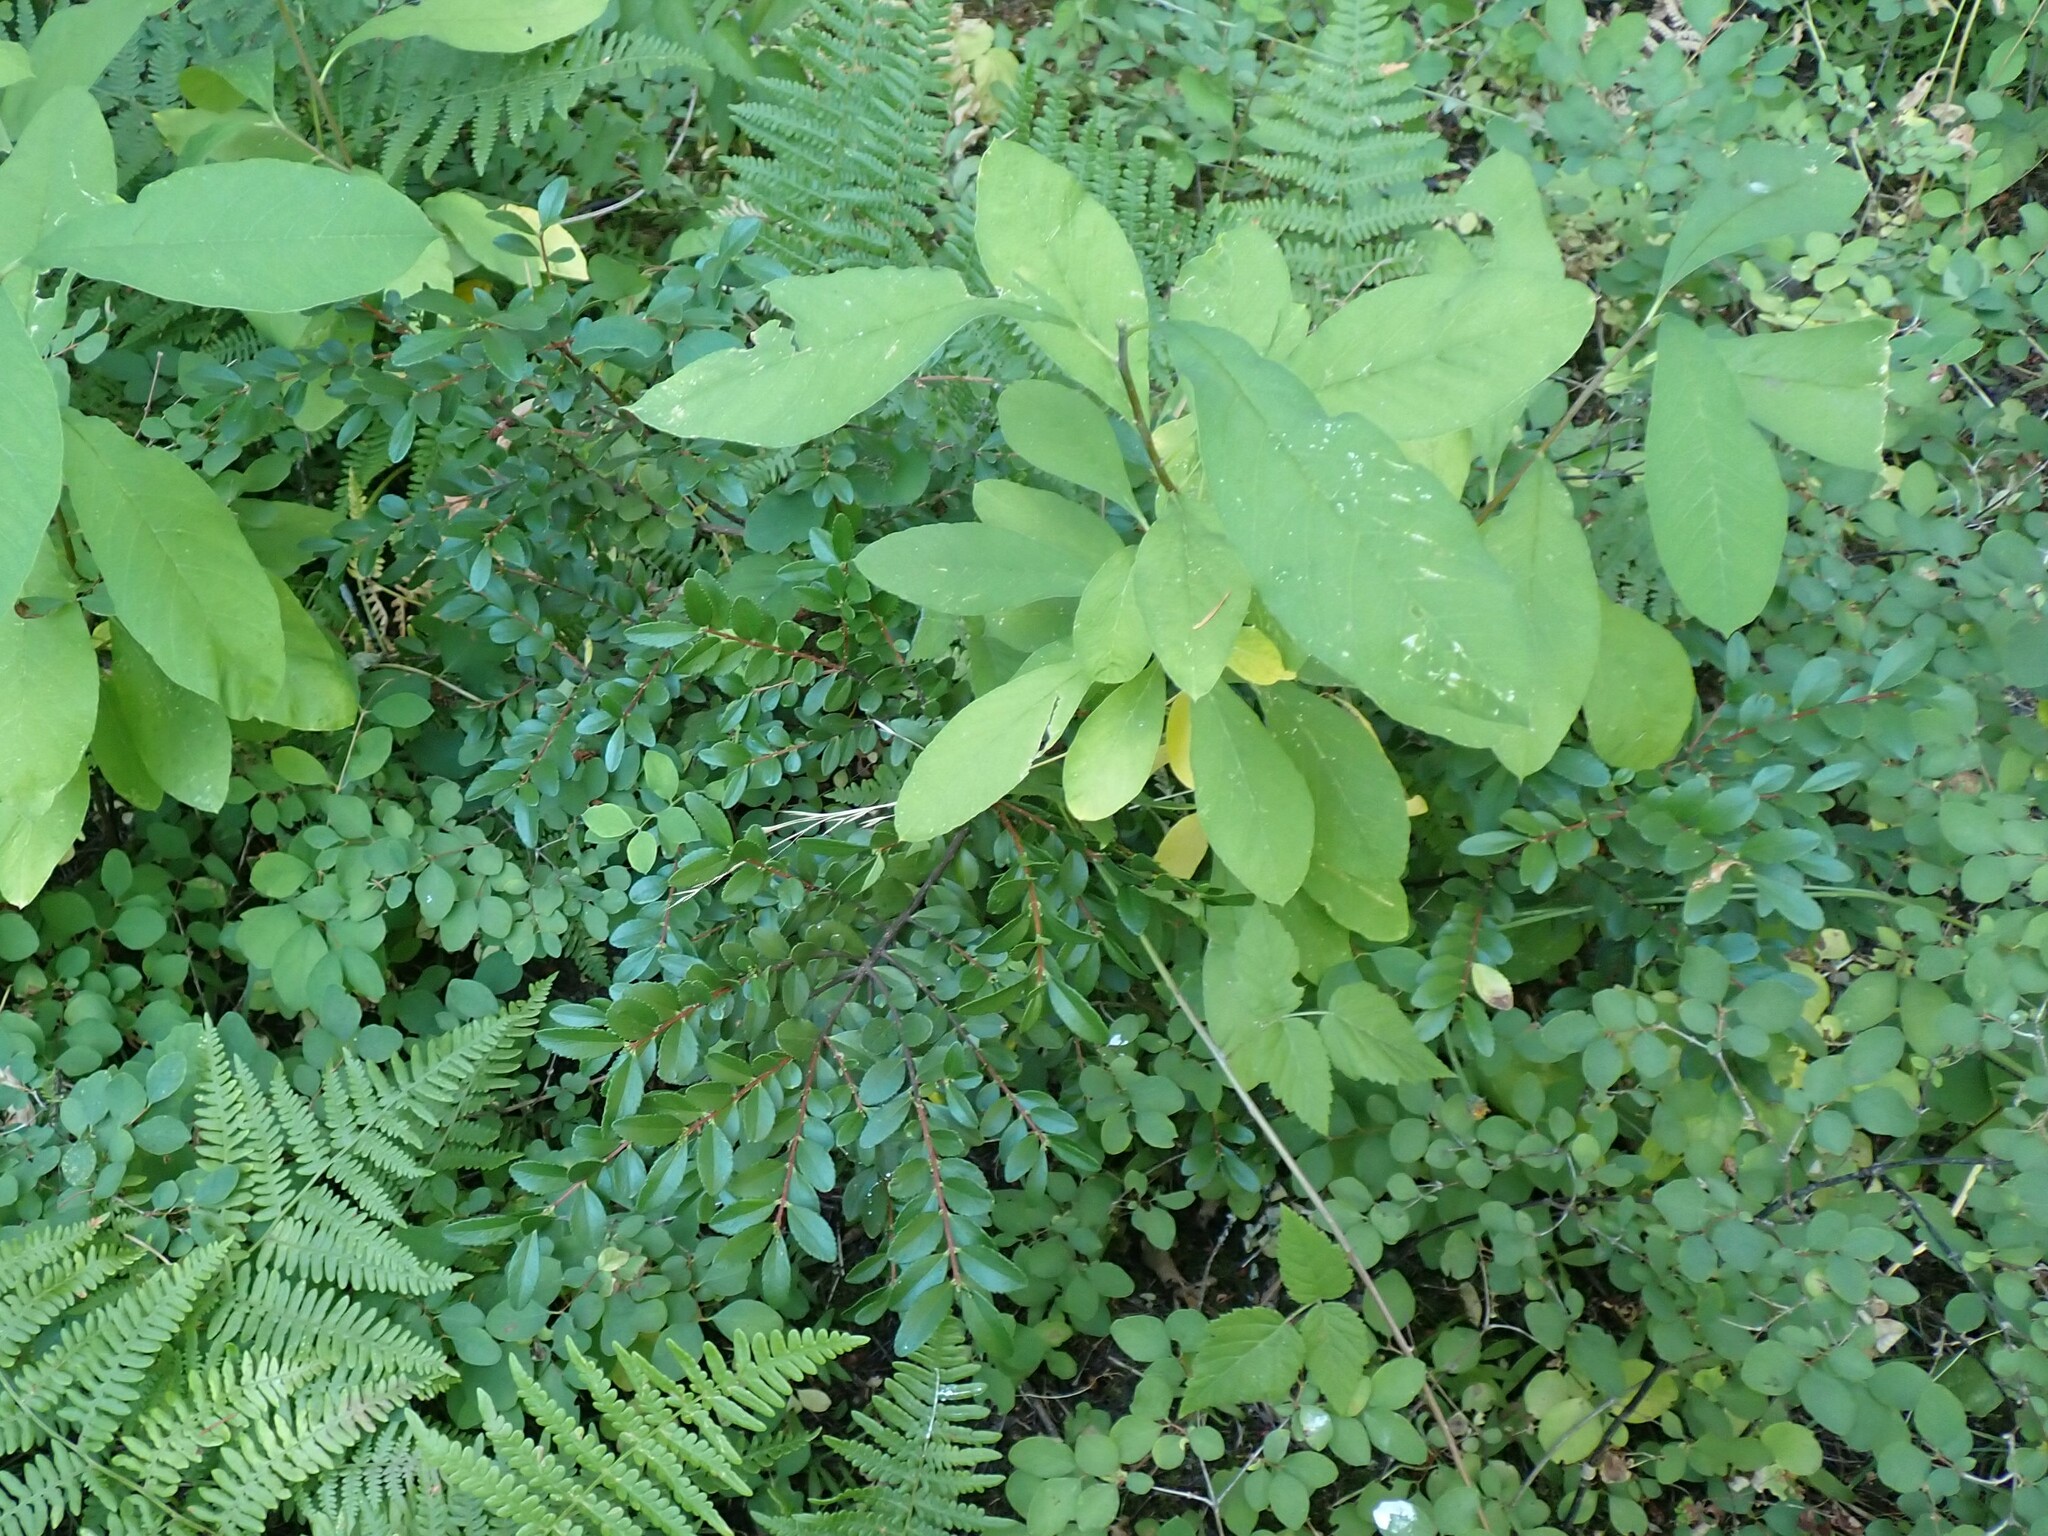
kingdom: Plantae
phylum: Tracheophyta
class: Magnoliopsida
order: Celastrales
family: Celastraceae
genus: Paxistima
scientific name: Paxistima myrsinites
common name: Mountain-lover
